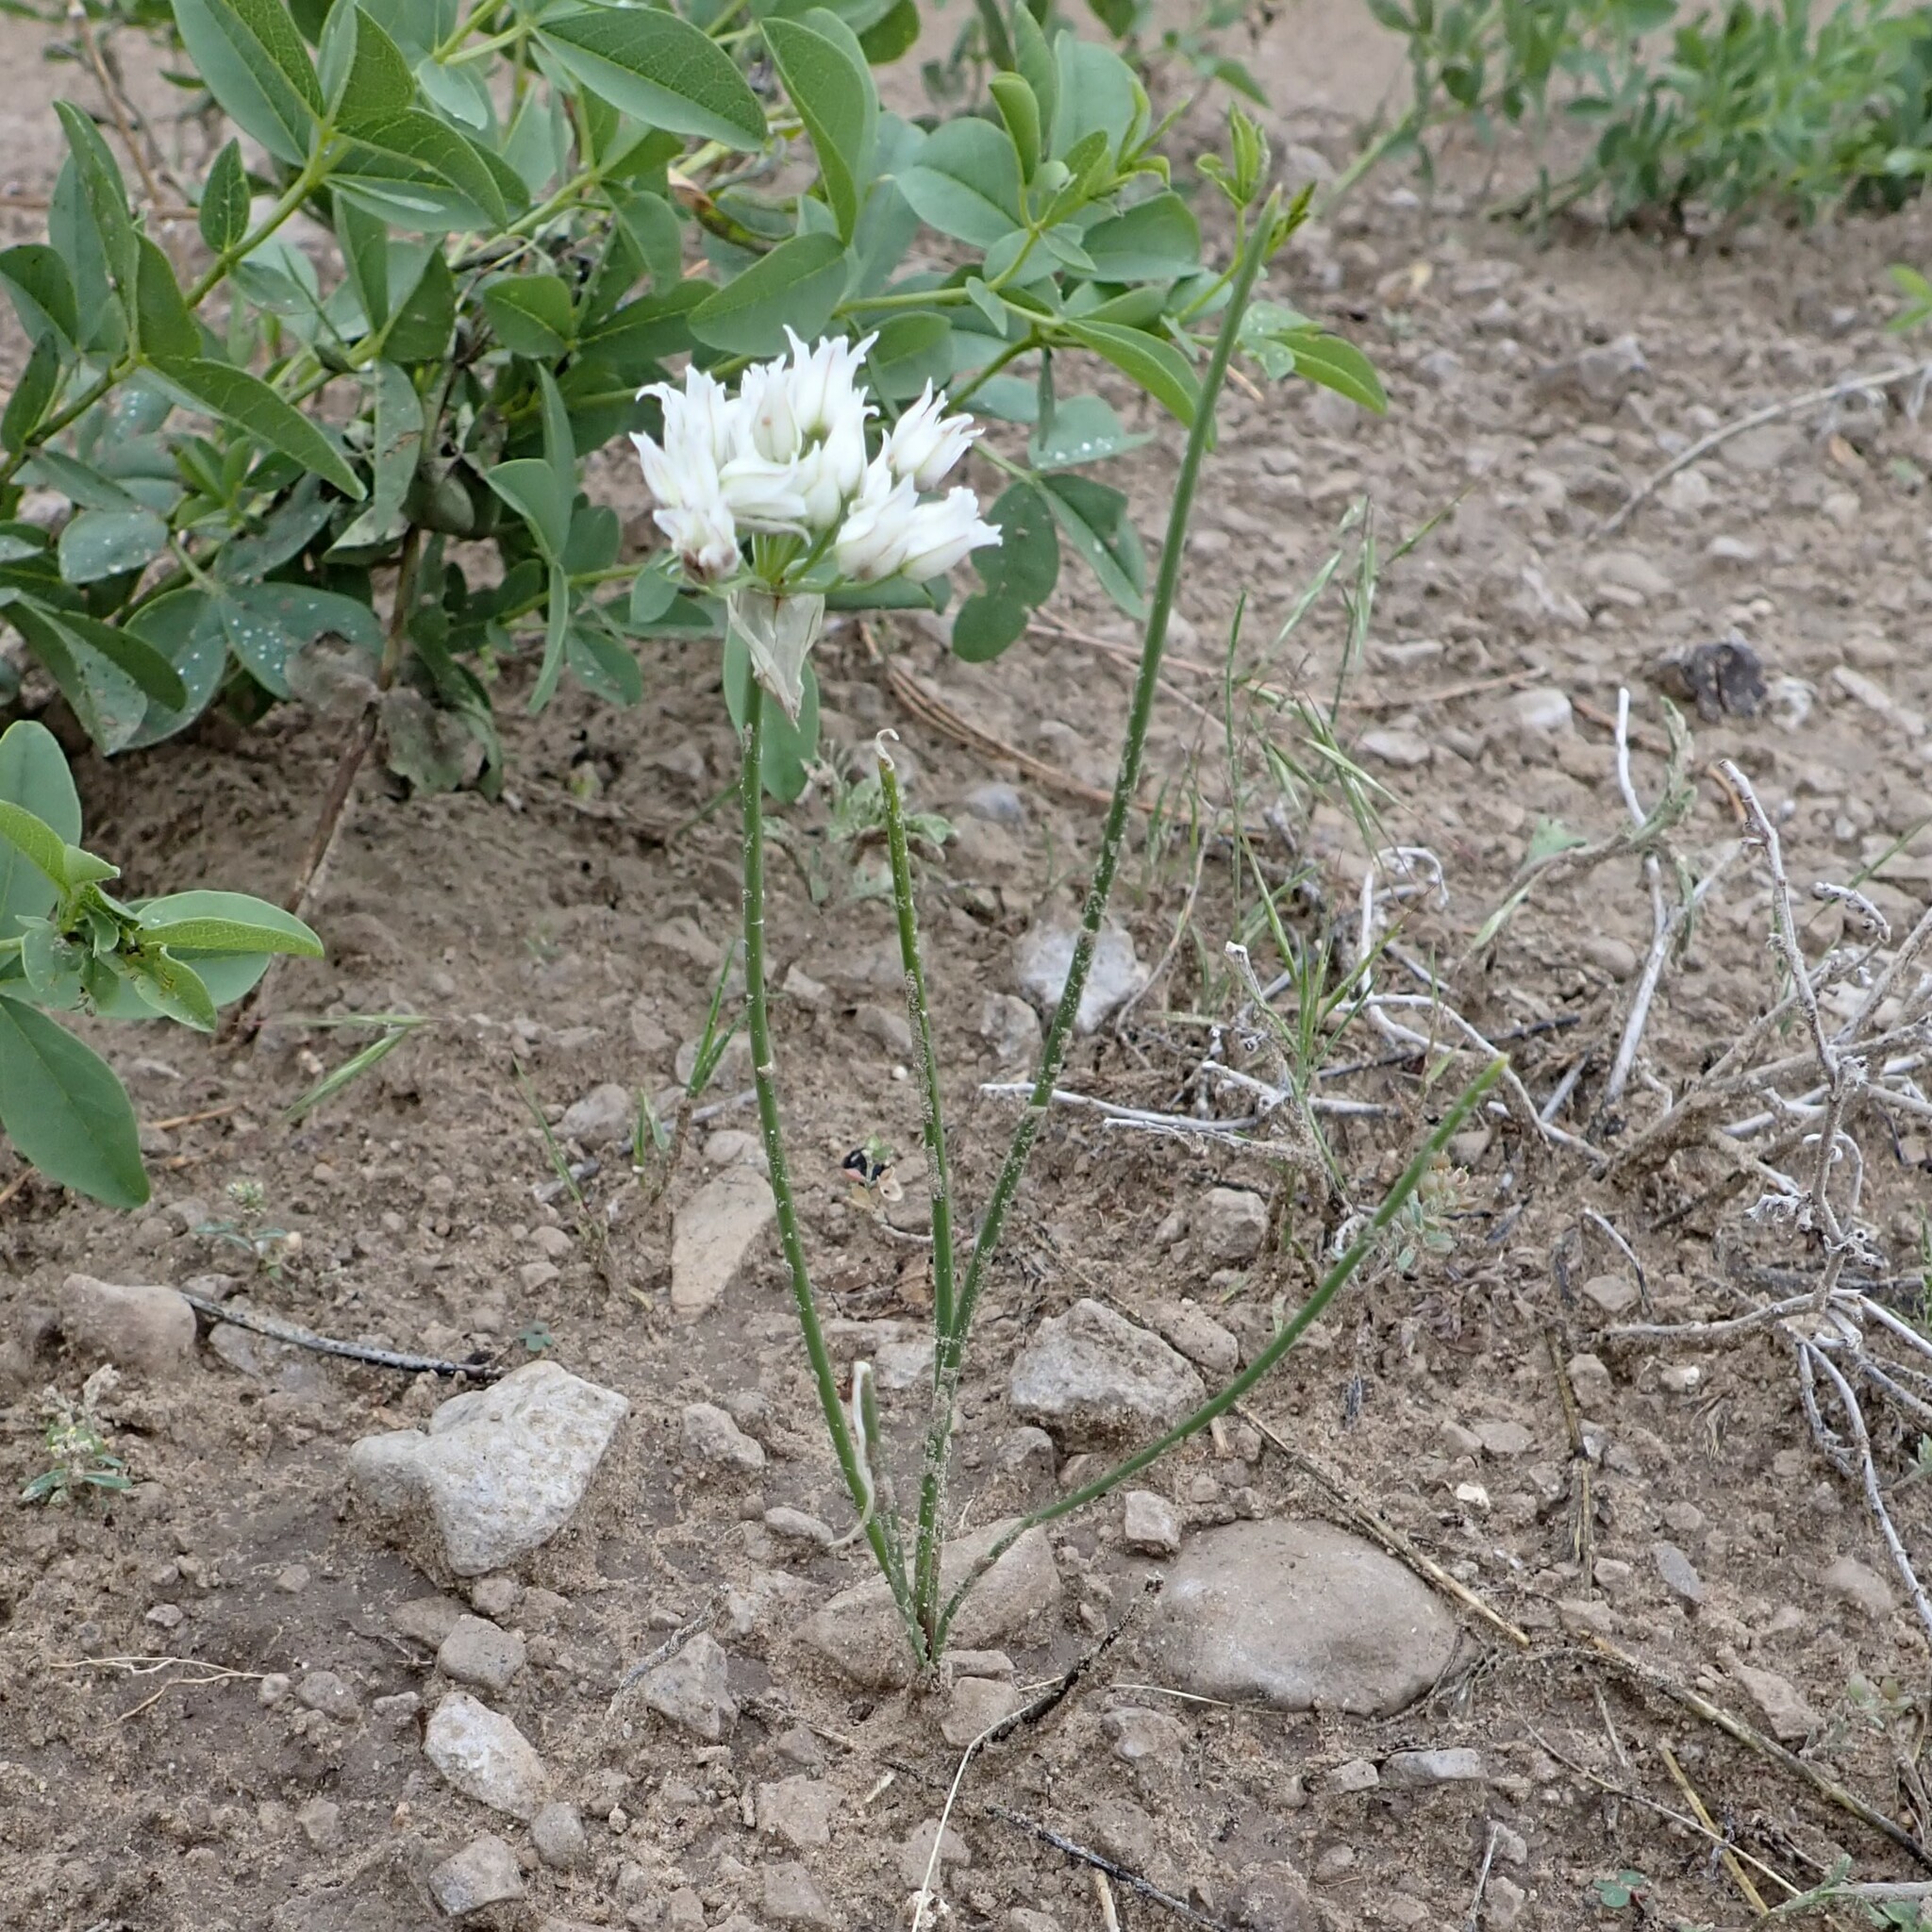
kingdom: Plantae
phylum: Tracheophyta
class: Liliopsida
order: Asparagales
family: Amaryllidaceae
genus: Allium
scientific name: Allium textile
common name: Prairie onion
